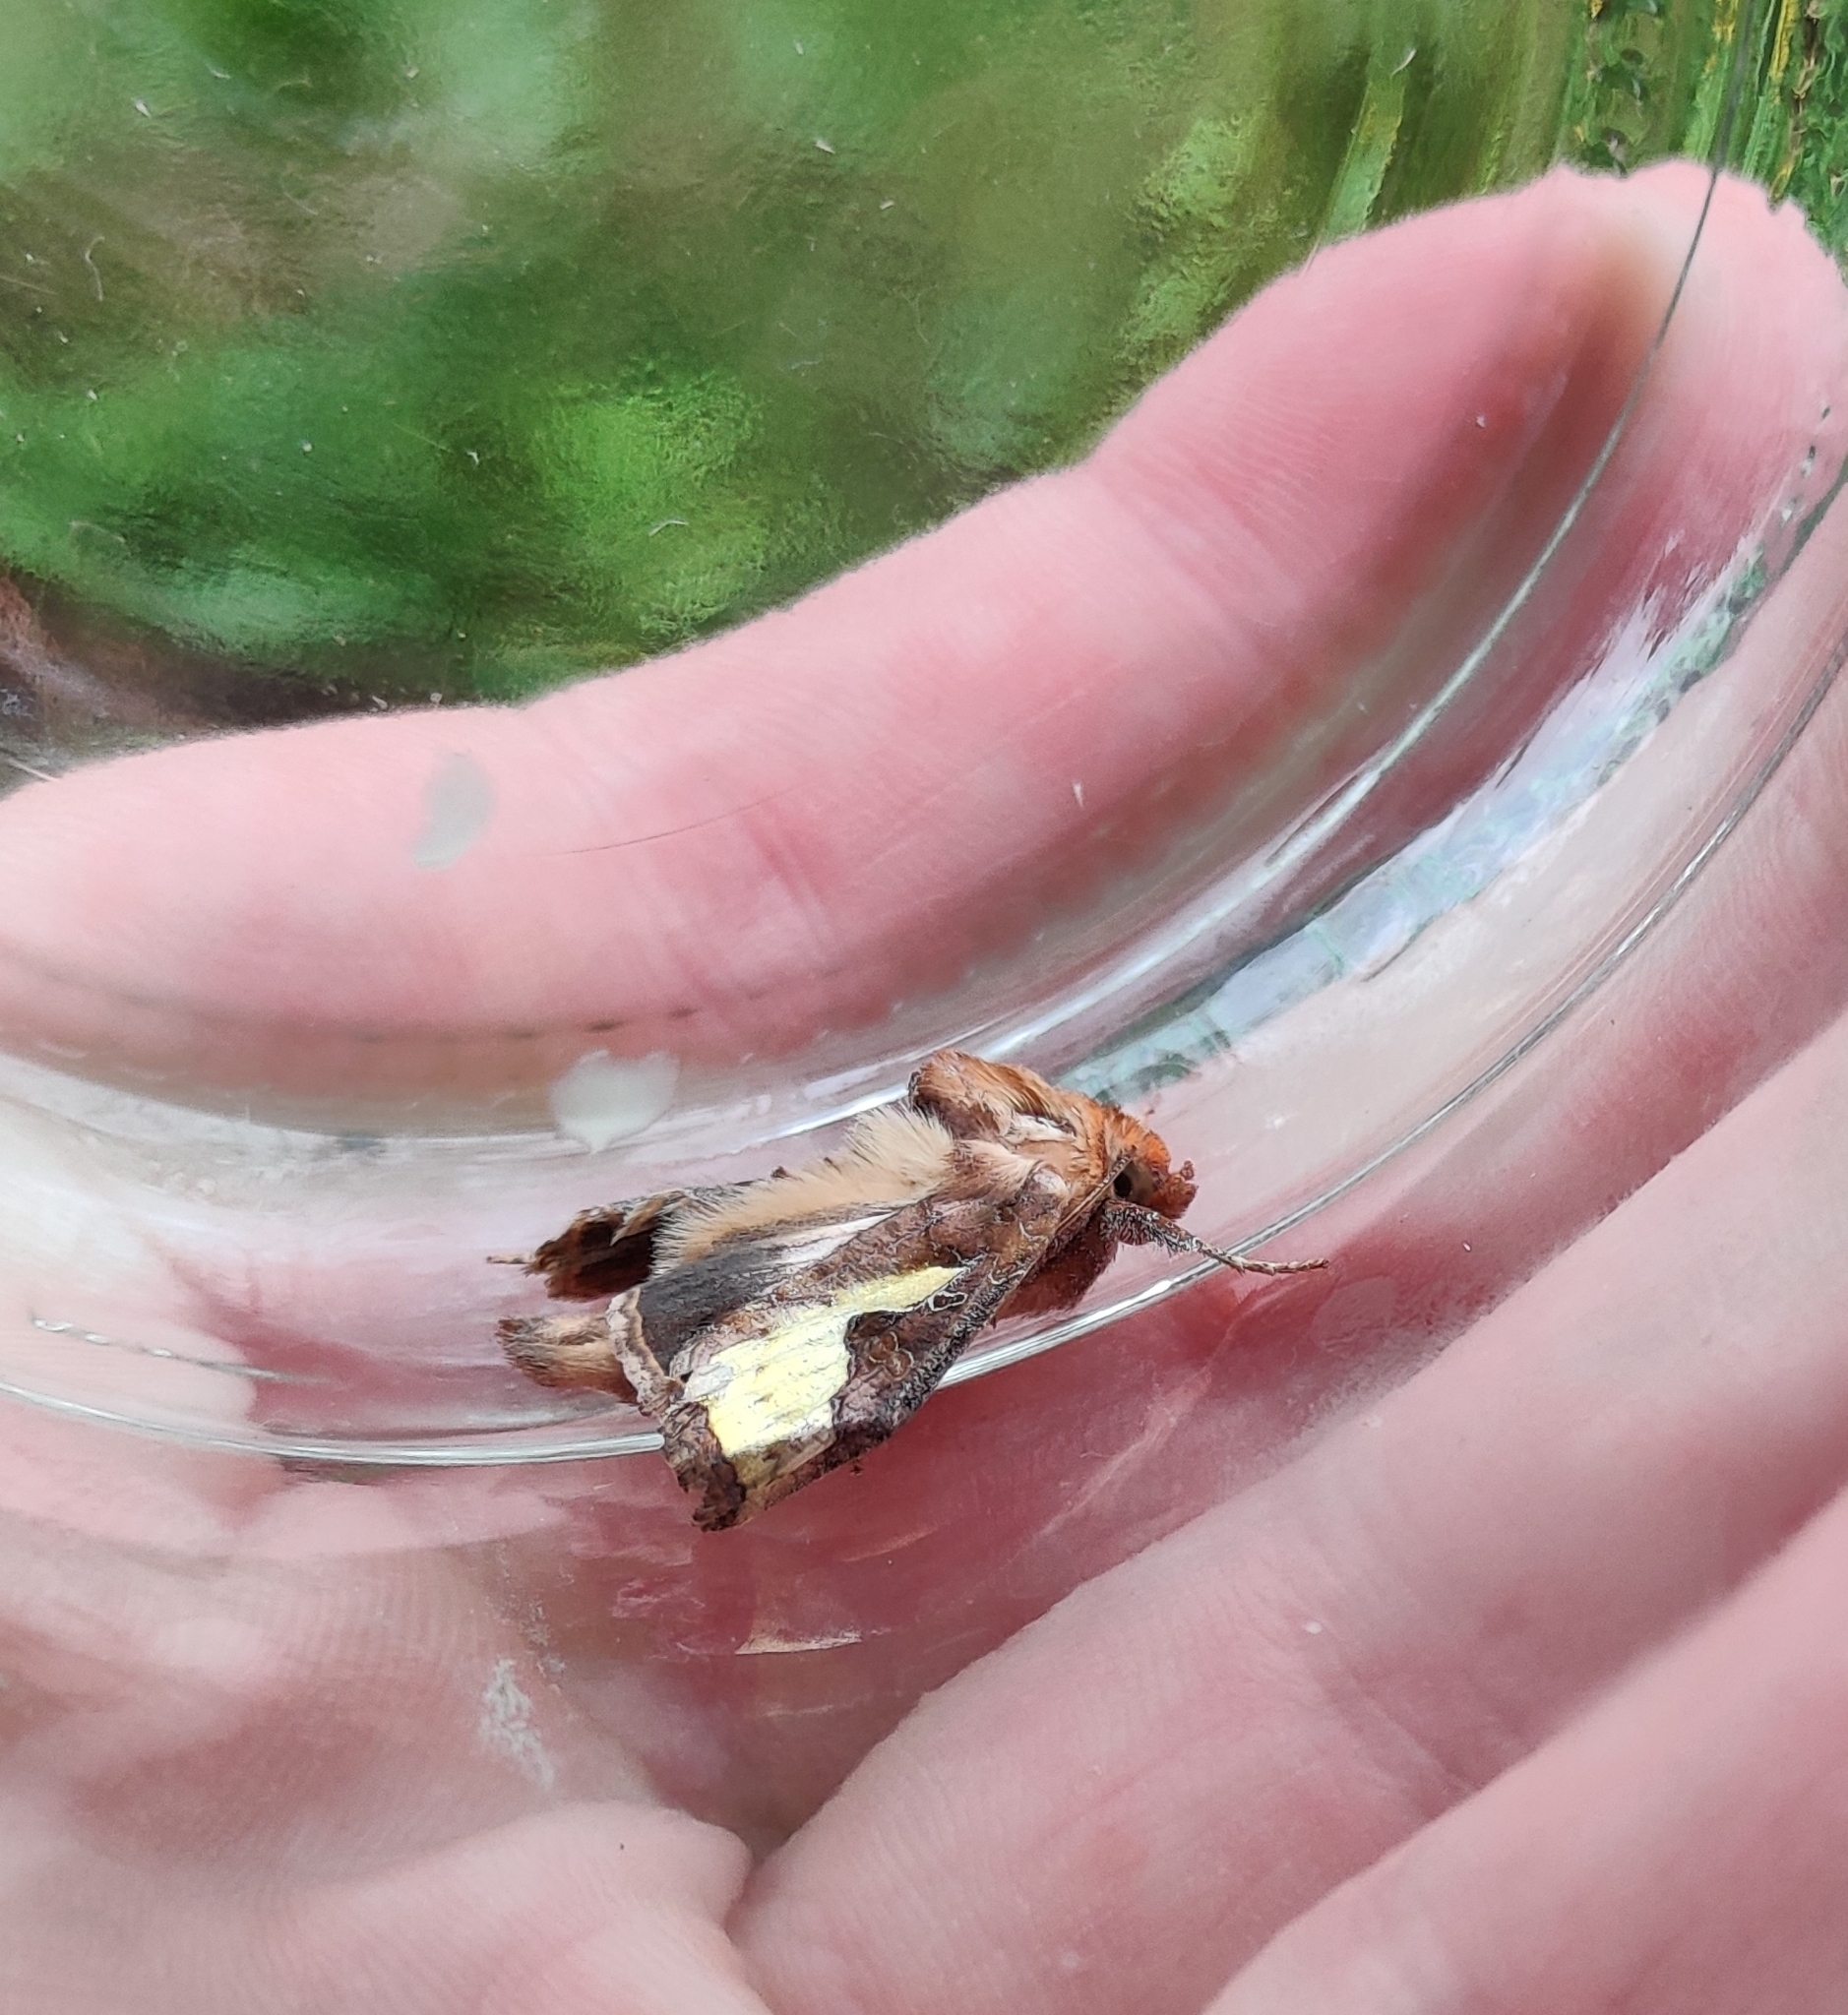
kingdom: Animalia
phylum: Arthropoda
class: Insecta
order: Lepidoptera
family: Noctuidae
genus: Thysanoplusia
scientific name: Thysanoplusia orichalcea
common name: Slender burnished brass, golden plusia
